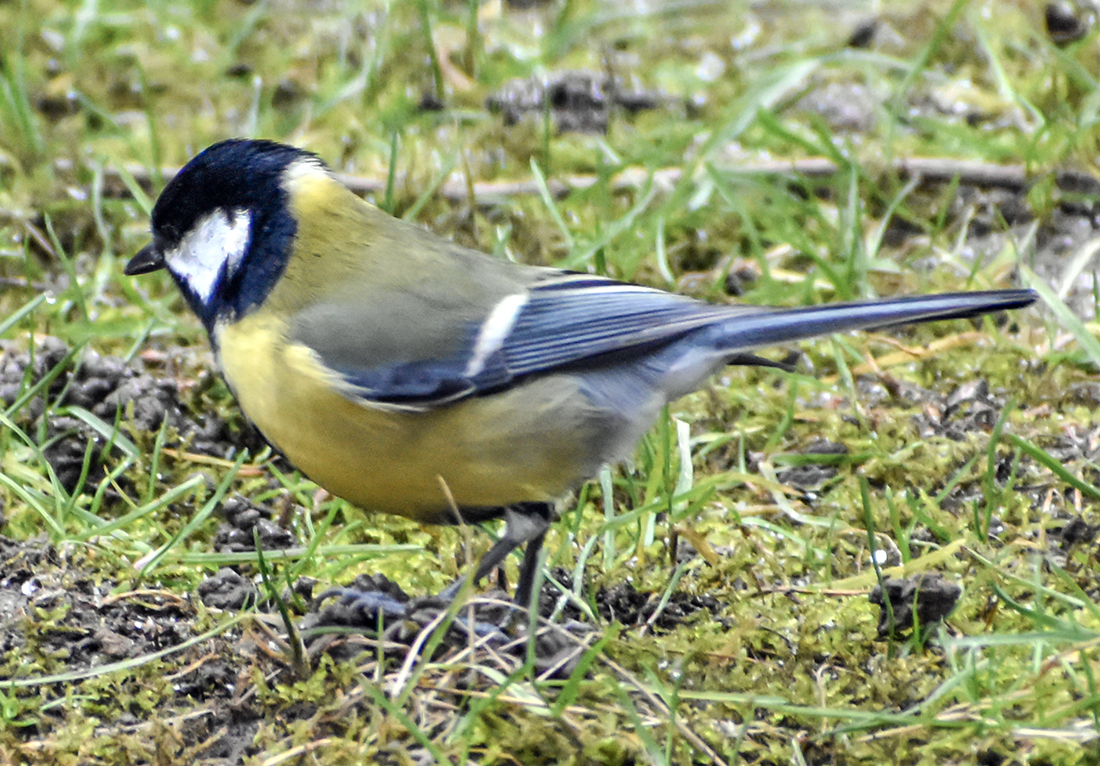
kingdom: Animalia
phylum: Chordata
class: Aves
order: Passeriformes
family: Paridae
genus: Parus
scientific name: Parus major
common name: Great tit
